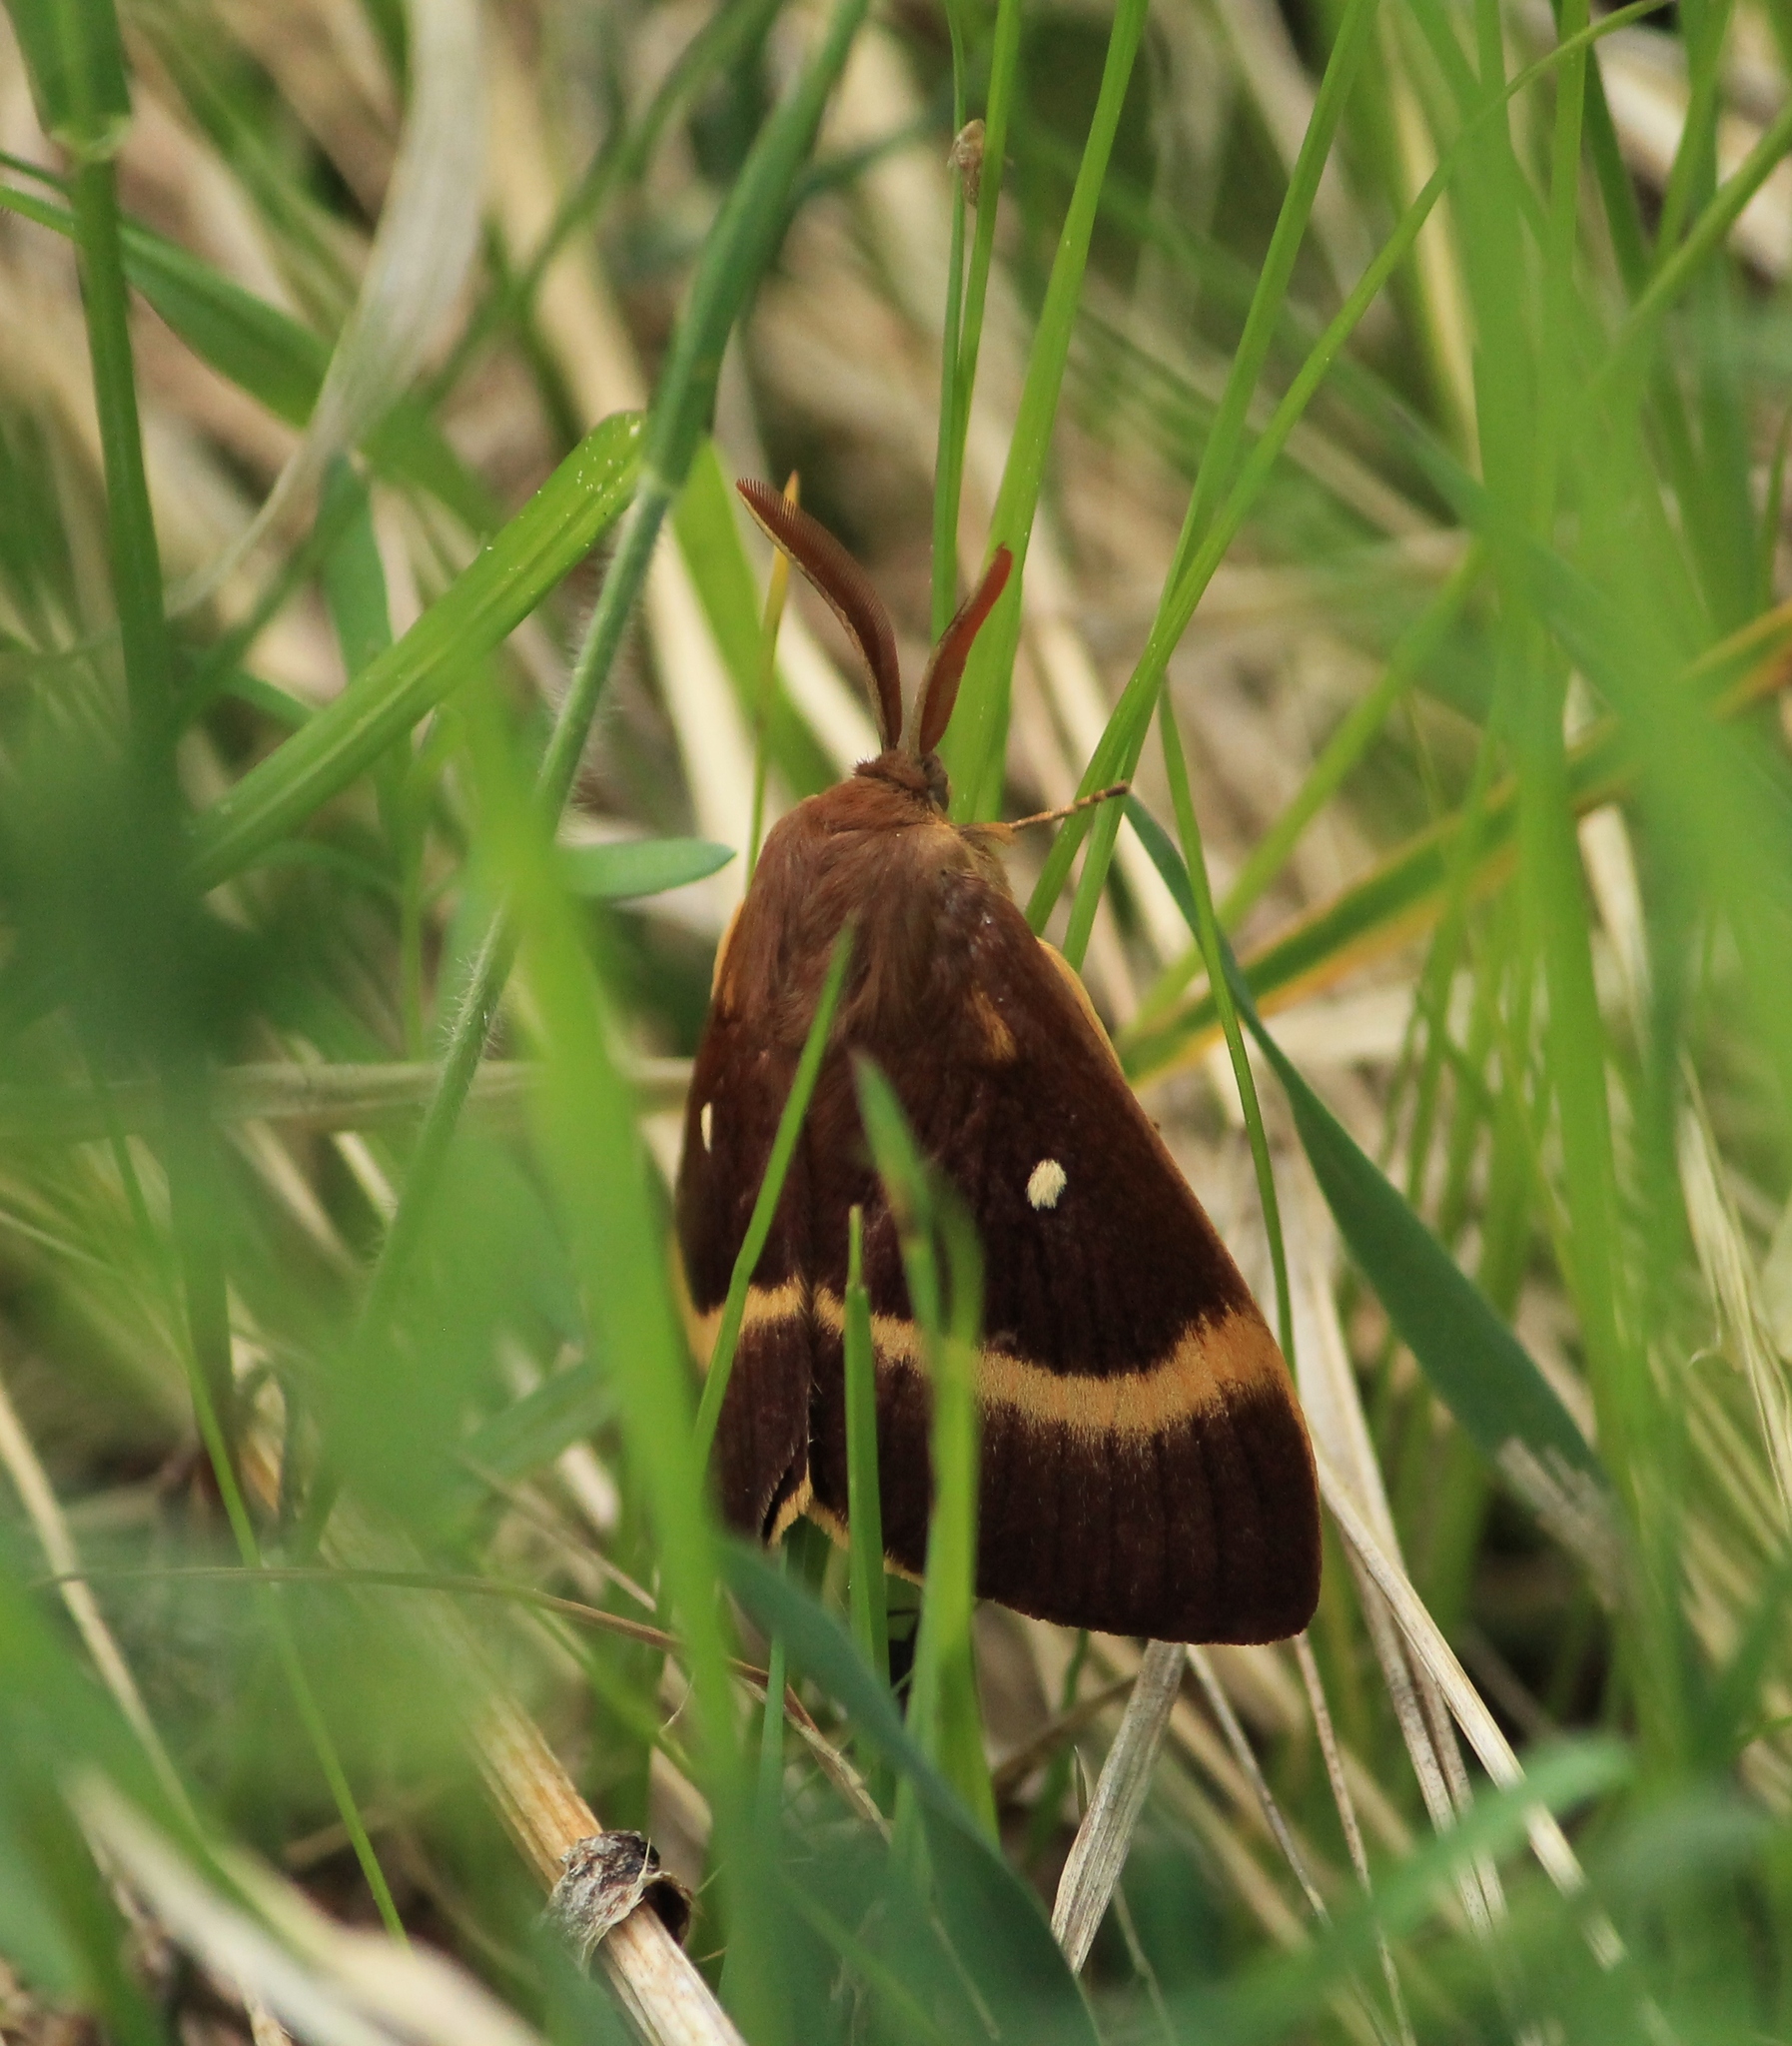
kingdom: Animalia
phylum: Arthropoda
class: Insecta
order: Lepidoptera
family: Lasiocampidae
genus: Lasiocampa
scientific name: Lasiocampa quercus
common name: Oak eggar
